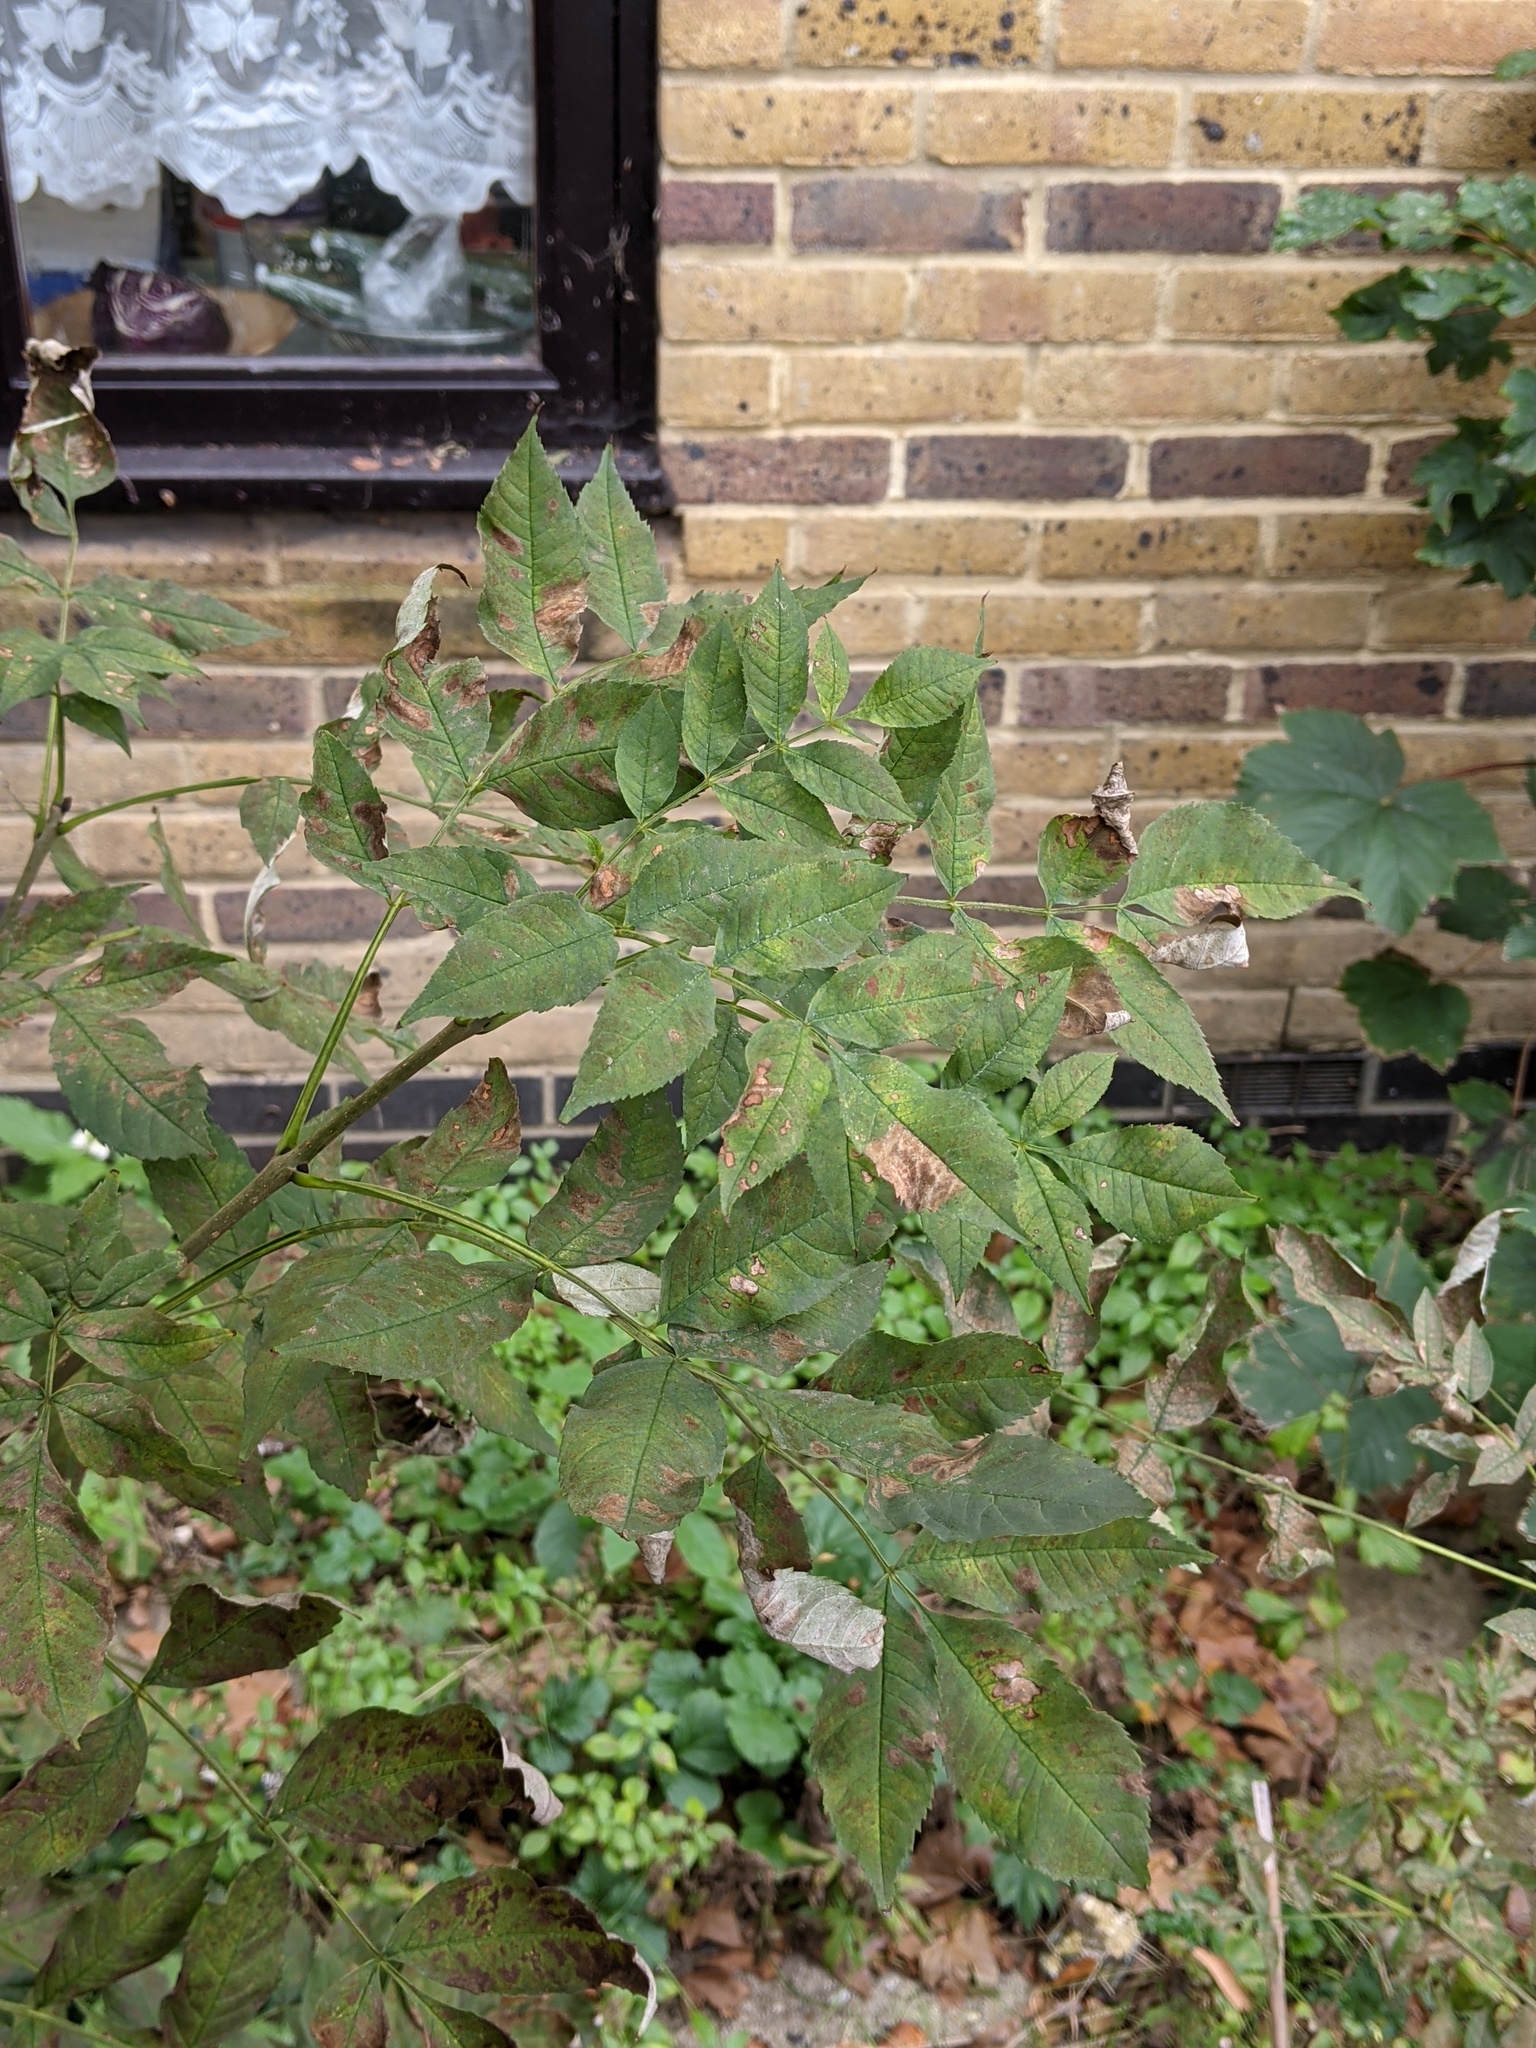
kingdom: Plantae
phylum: Tracheophyta
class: Magnoliopsida
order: Lamiales
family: Oleaceae
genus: Fraxinus
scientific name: Fraxinus excelsior
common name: European ash
